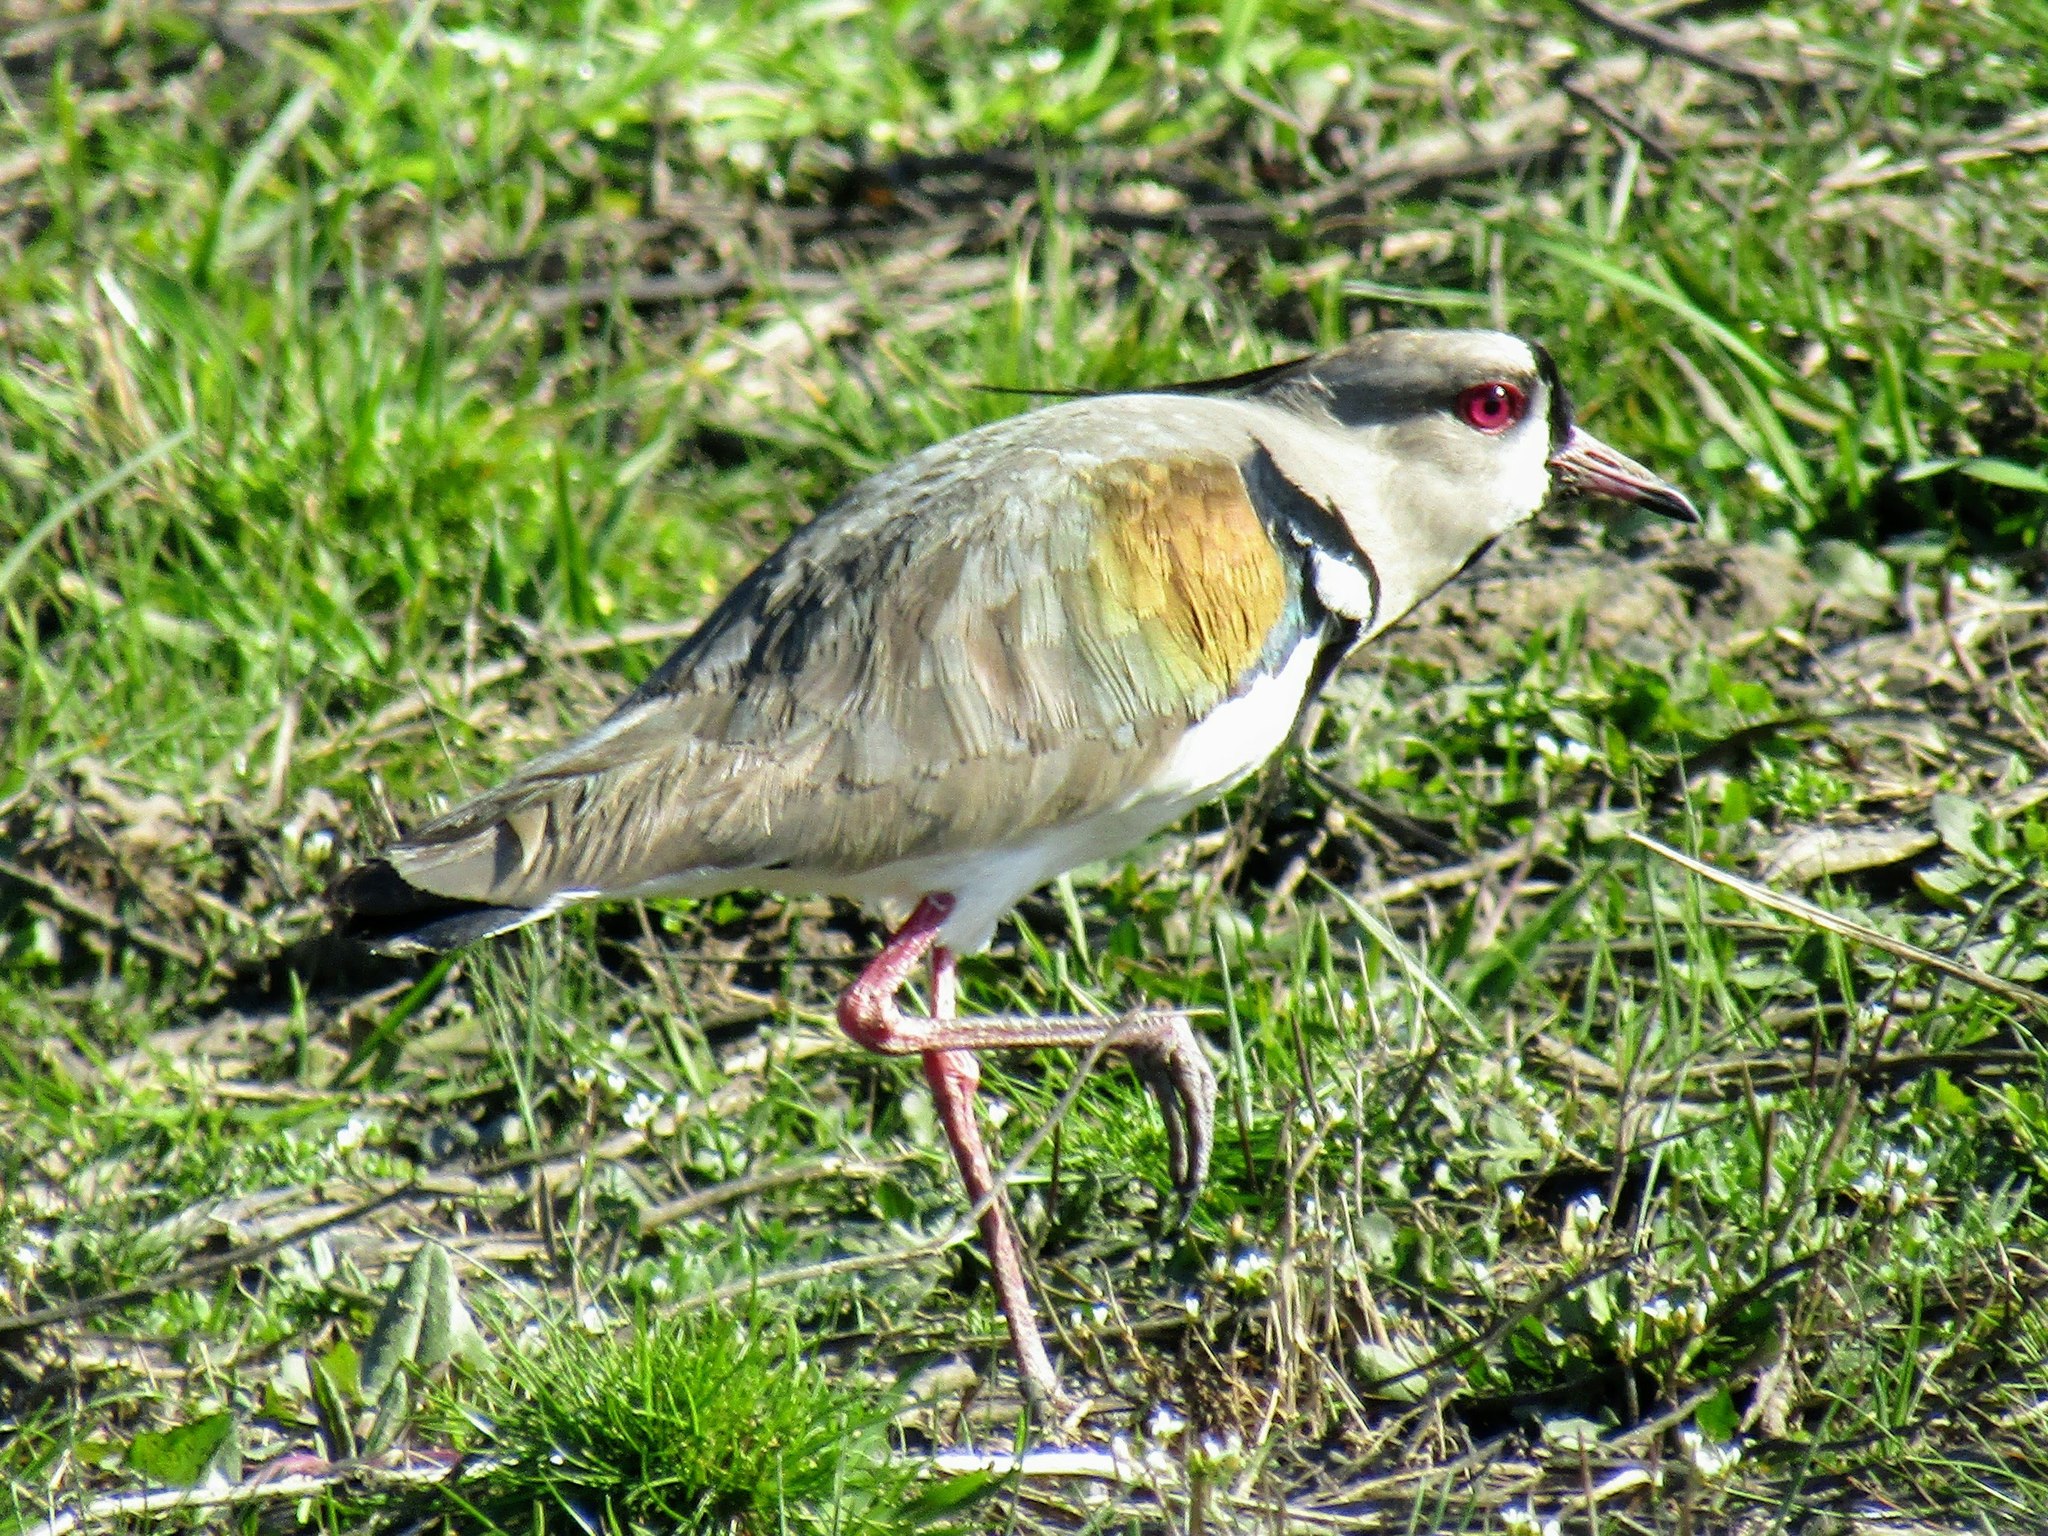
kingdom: Animalia
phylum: Chordata
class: Aves
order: Charadriiformes
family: Charadriidae
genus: Vanellus
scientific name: Vanellus chilensis
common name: Southern lapwing
